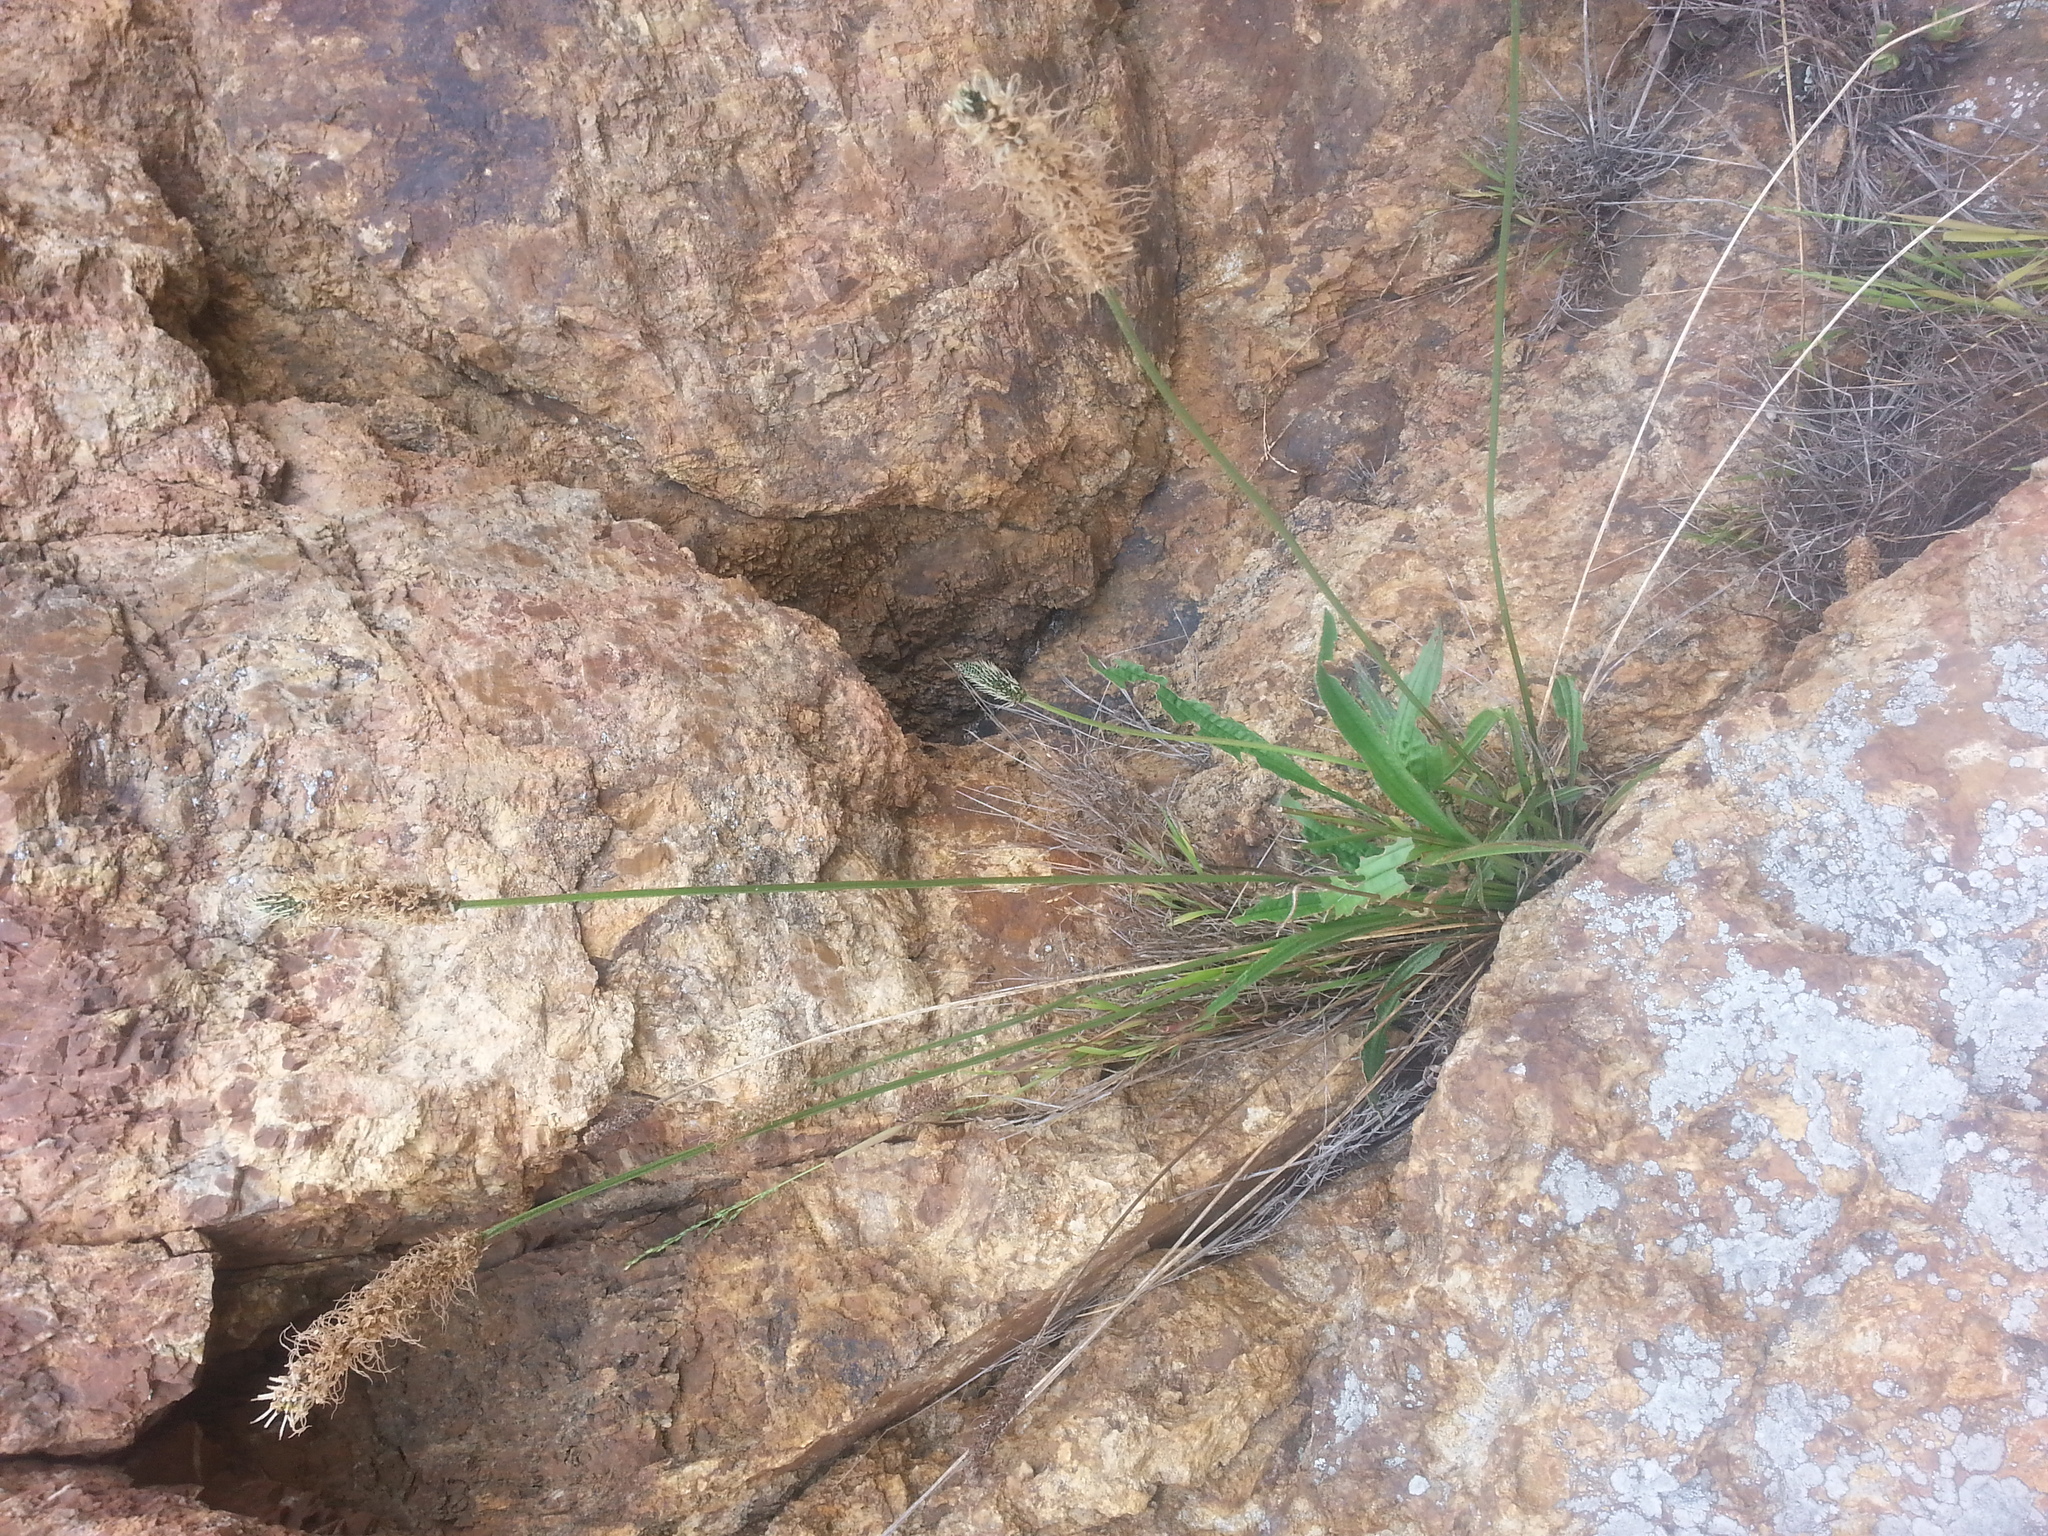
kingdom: Plantae
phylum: Tracheophyta
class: Magnoliopsida
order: Lamiales
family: Plantaginaceae
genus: Plantago
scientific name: Plantago lanceolata
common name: Ribwort plantain
